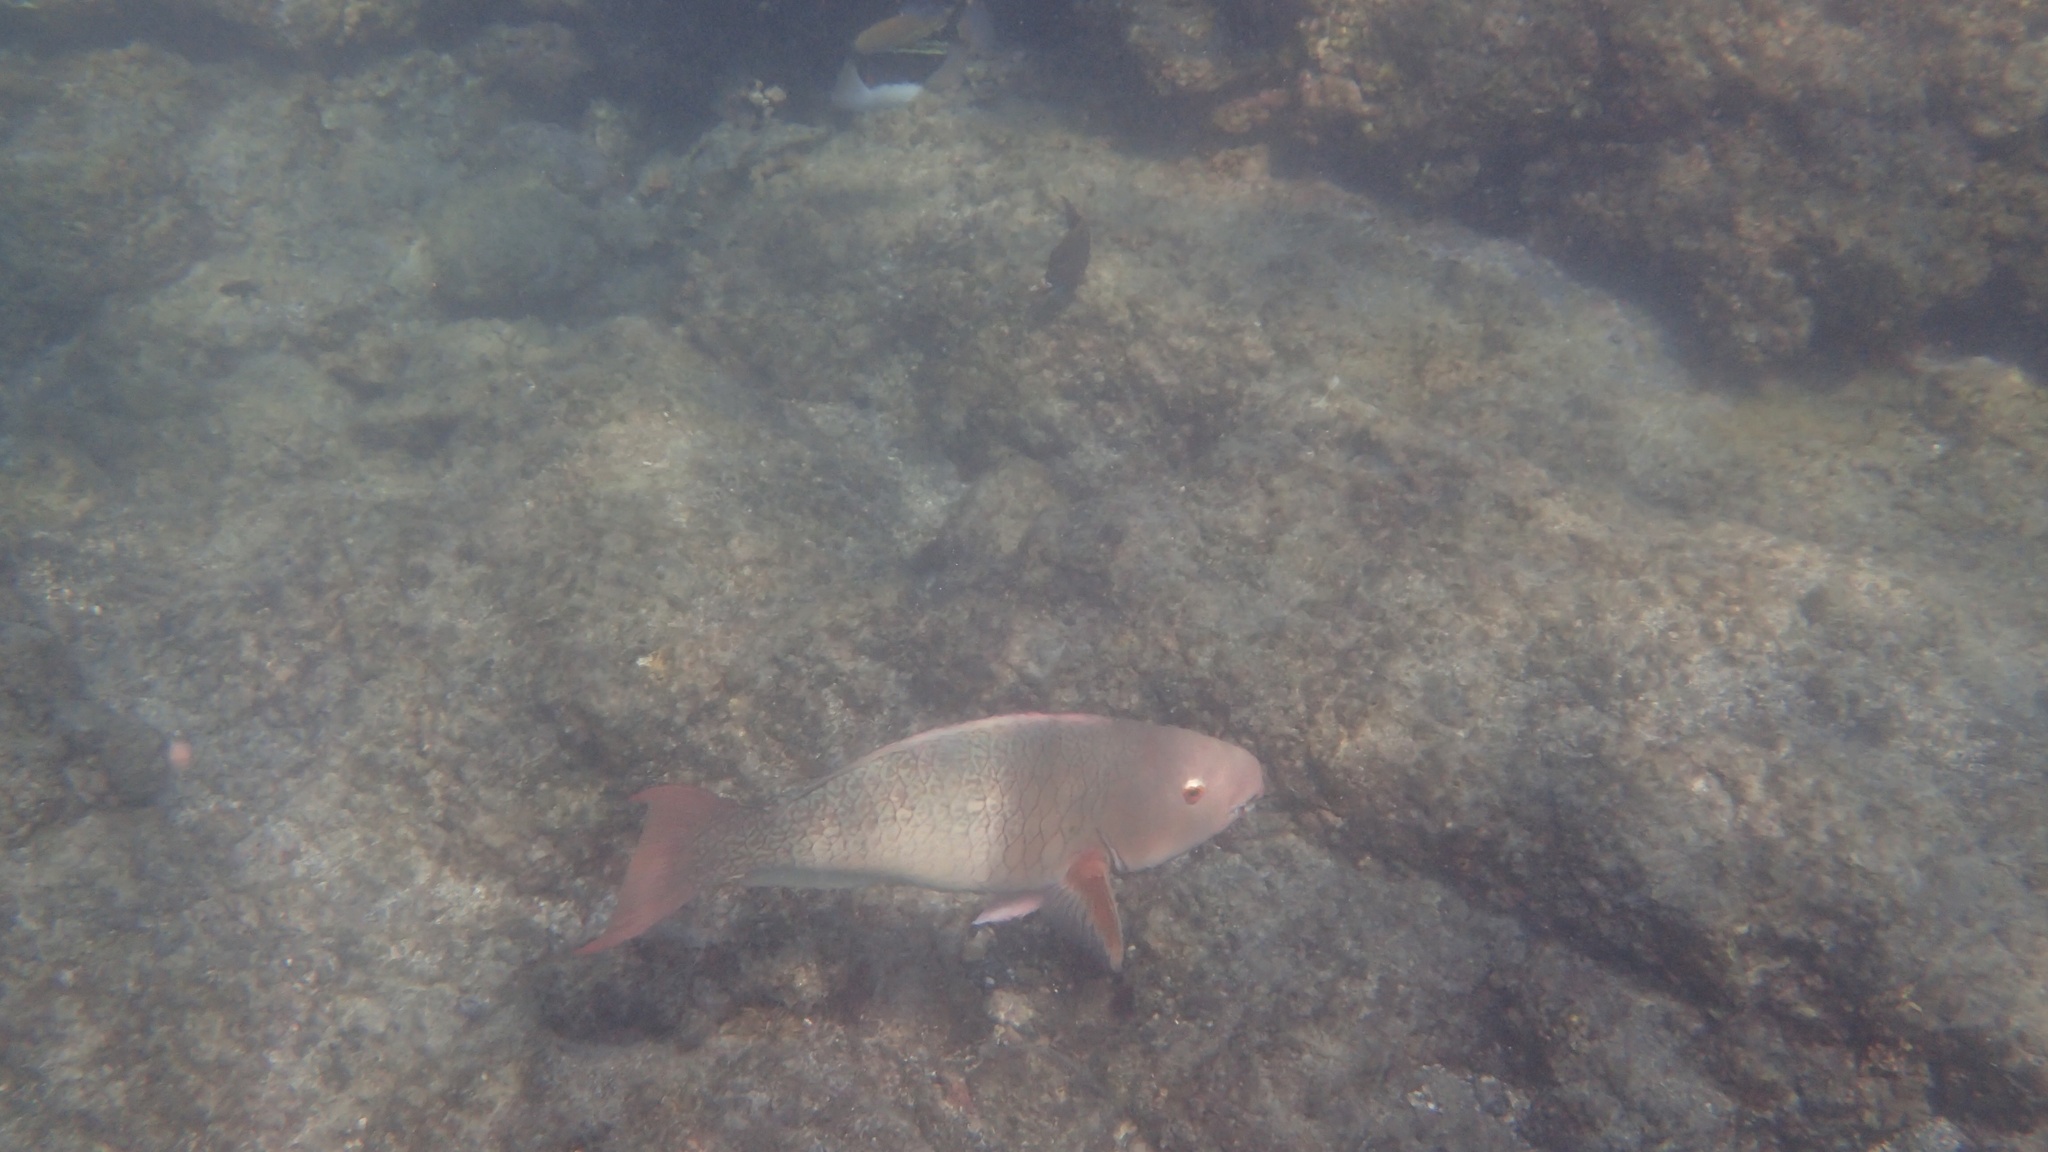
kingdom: Animalia
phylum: Chordata
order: Perciformes
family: Scaridae
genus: Scarus
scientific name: Scarus rubroviolaceus
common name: Ember parrotfish
